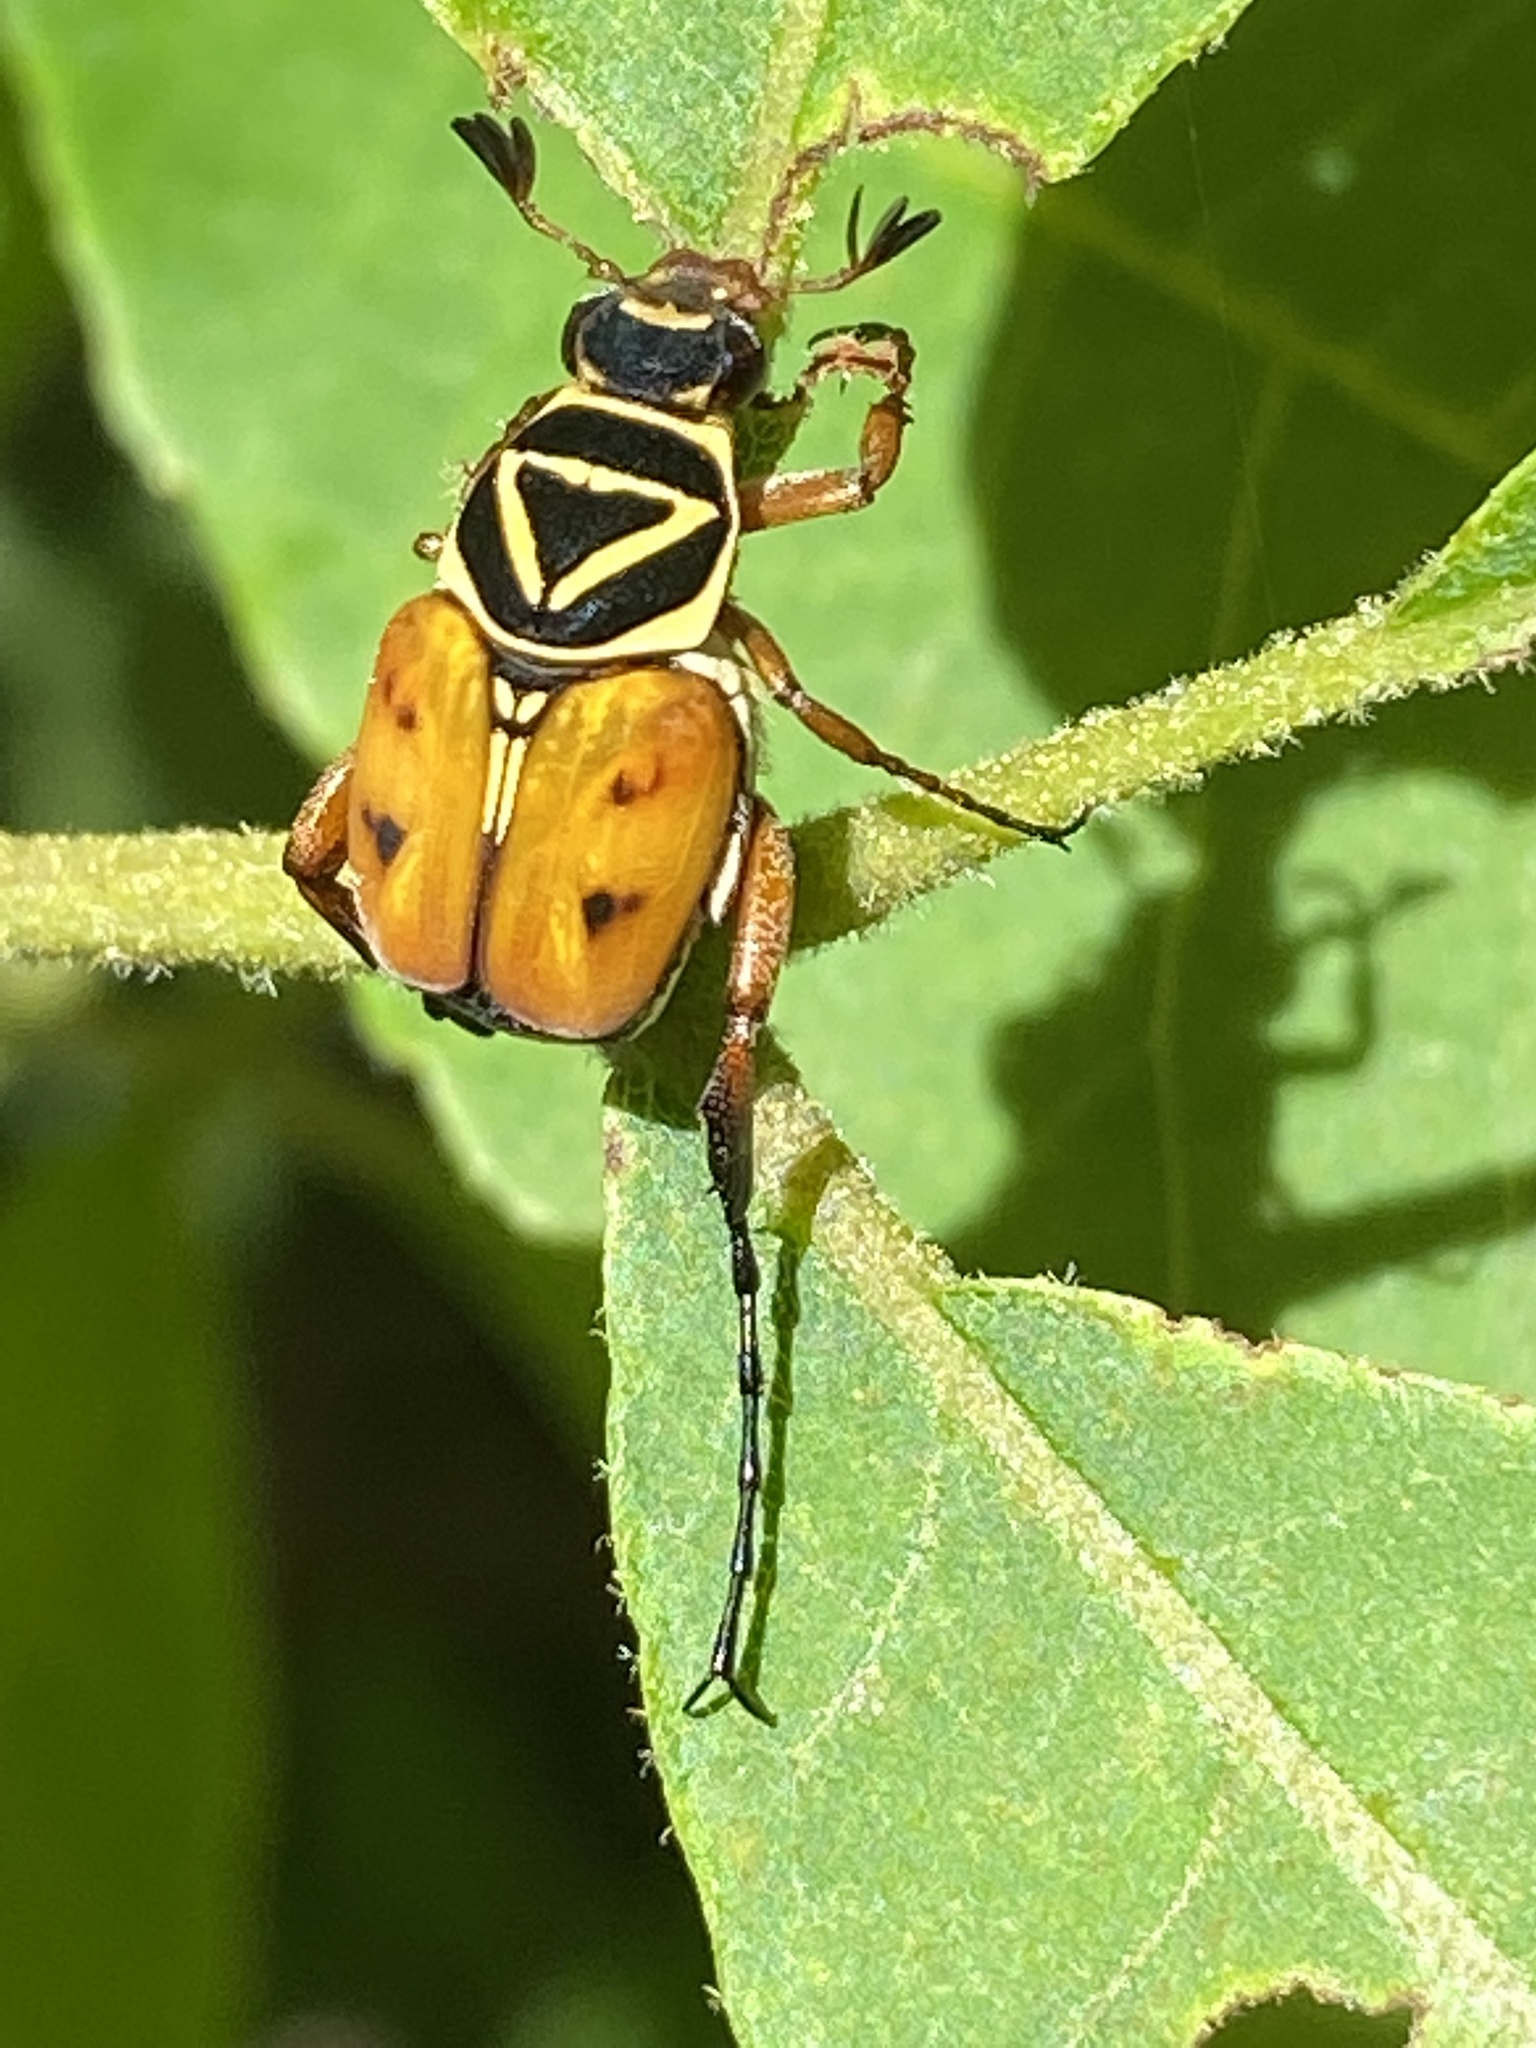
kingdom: Animalia
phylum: Arthropoda
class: Insecta
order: Coleoptera
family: Scarabaeidae
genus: Trigonopeltastes
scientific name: Trigonopeltastes delta
